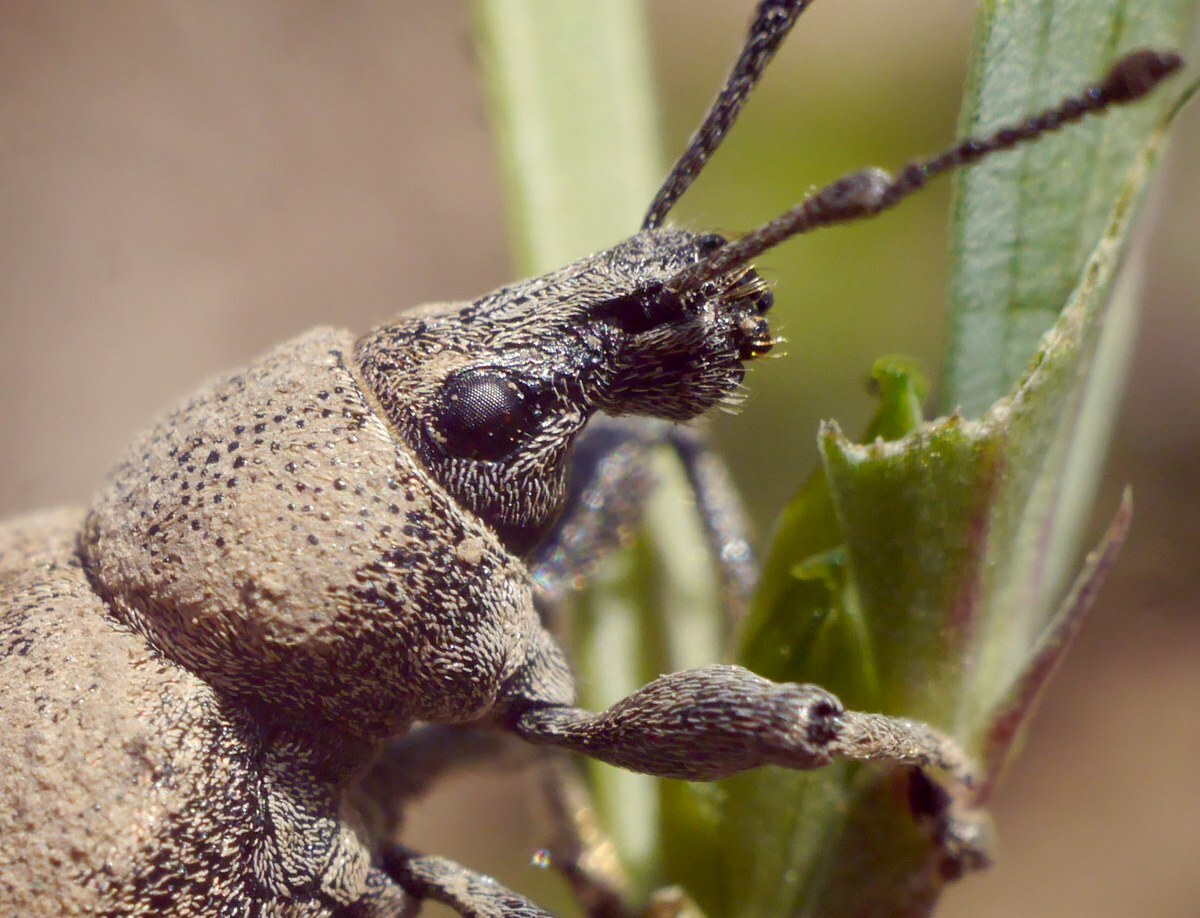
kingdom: Animalia
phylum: Arthropoda
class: Insecta
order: Coleoptera
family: Curculionidae
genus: Otiorhynchus
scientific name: Otiorhynchus ligustici
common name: Weevil
